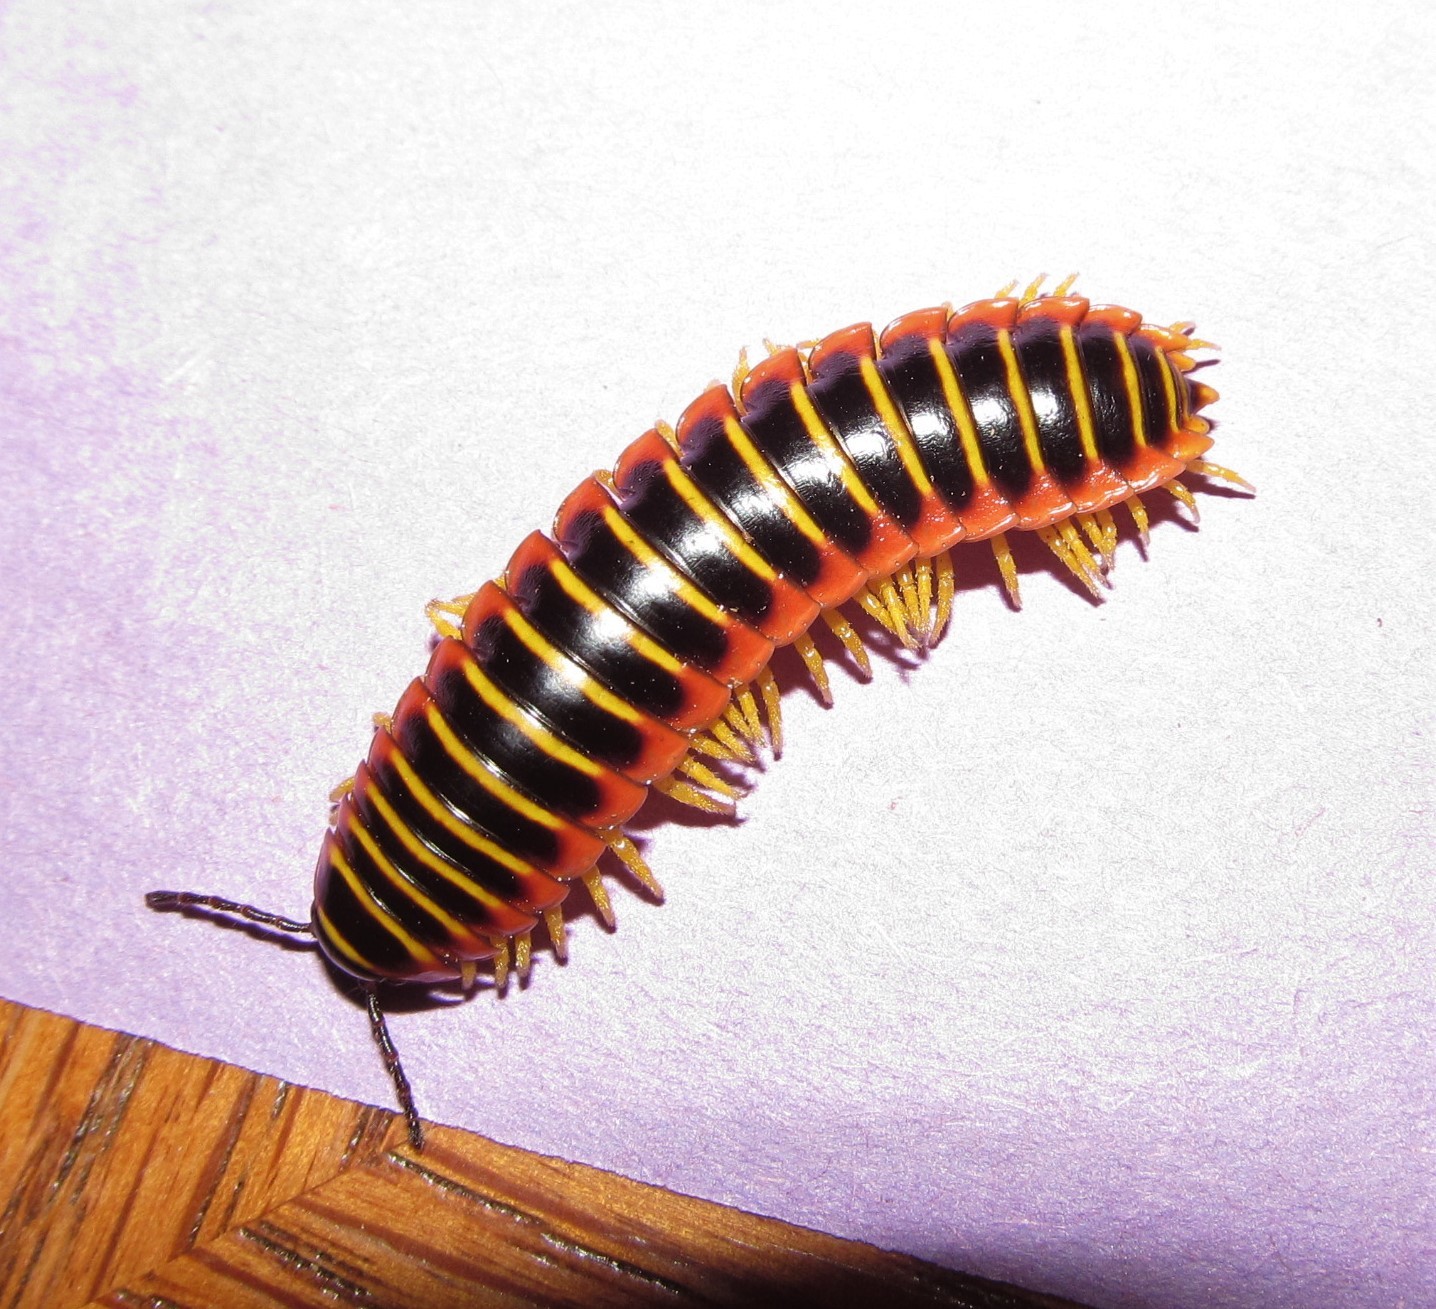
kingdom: Animalia
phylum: Arthropoda
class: Diplopoda
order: Polydesmida
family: Xystodesmidae
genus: Apheloria
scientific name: Apheloria virginiensis
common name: Black-and-gold flat millipede
